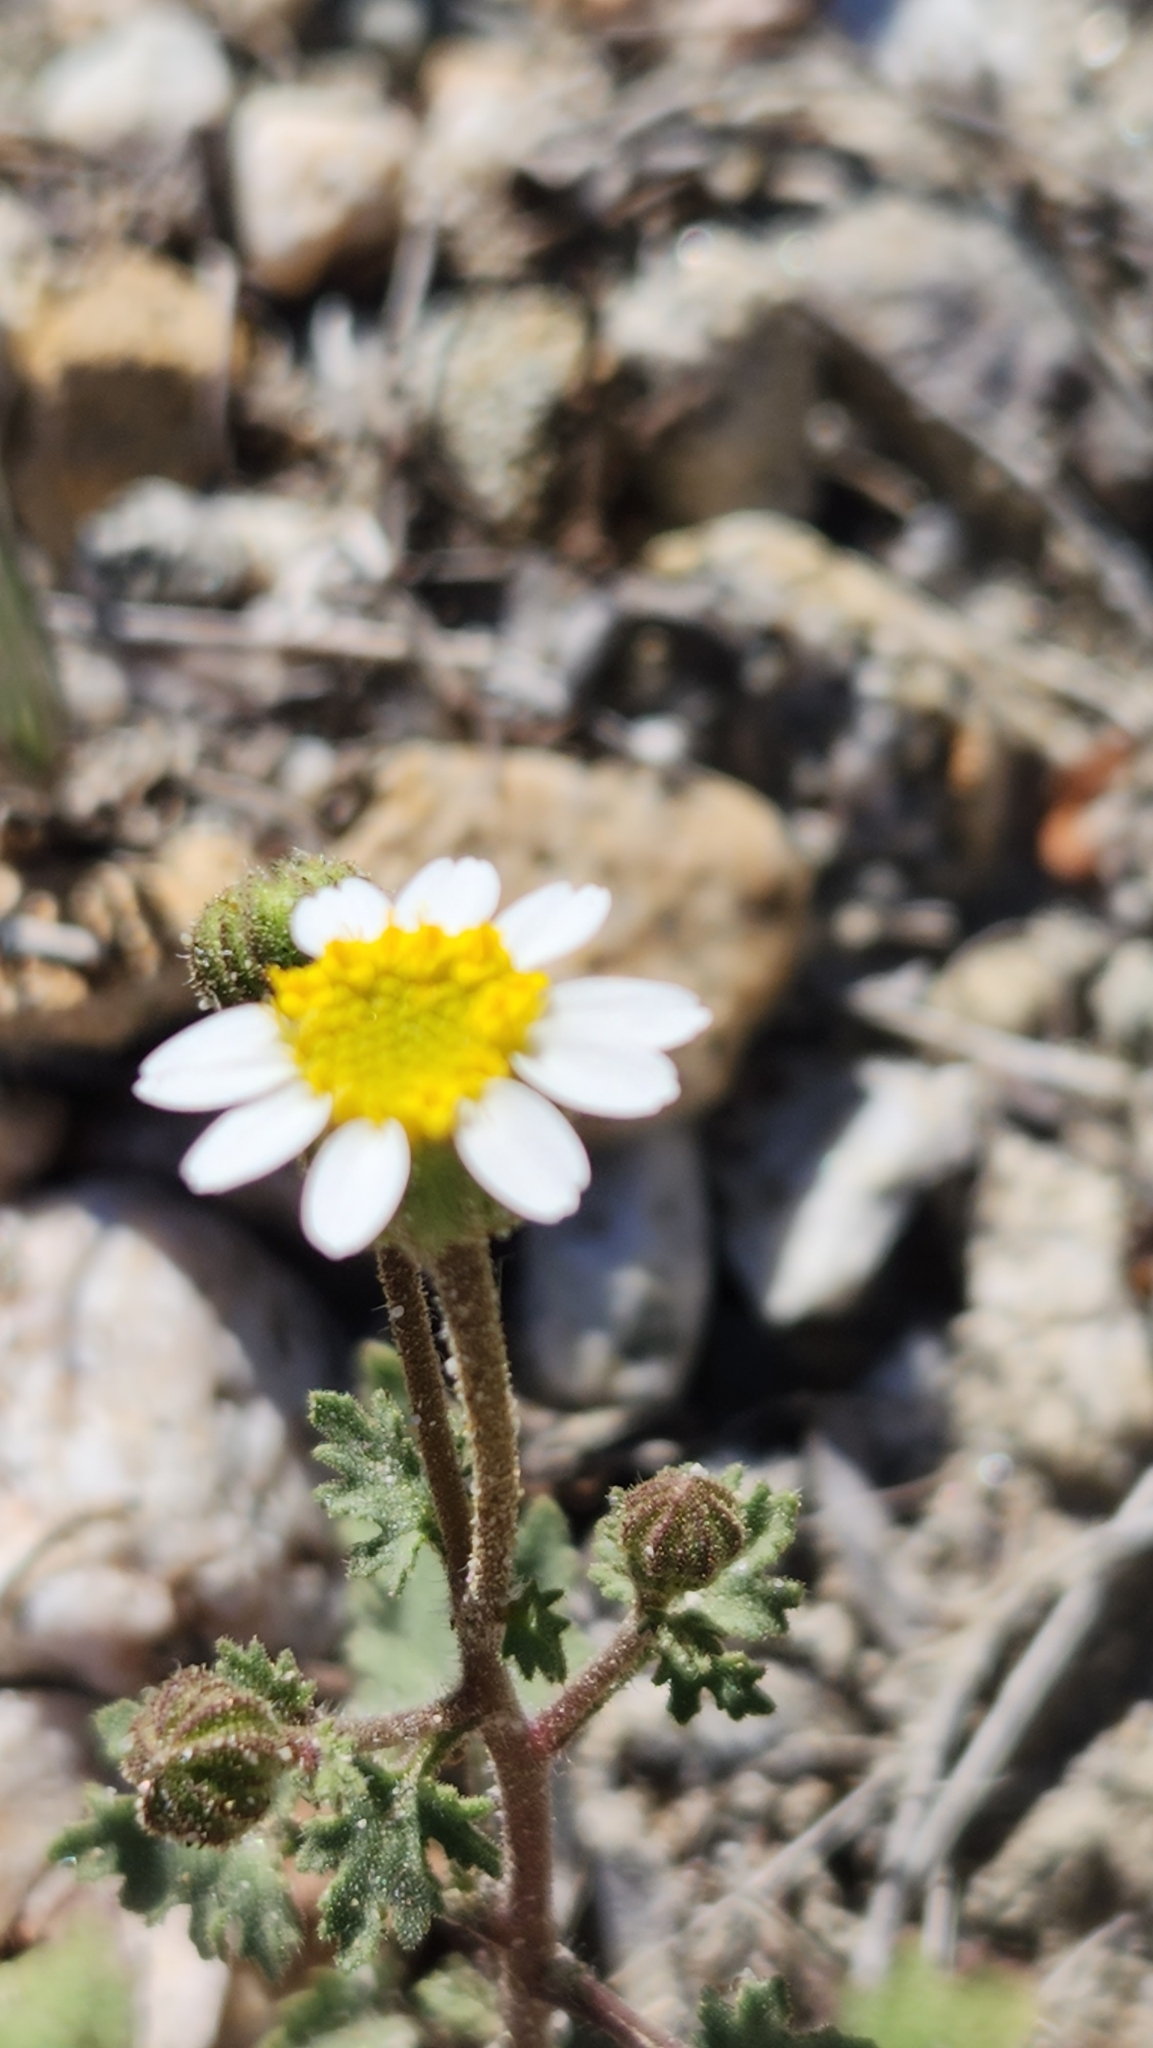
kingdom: Plantae
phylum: Tracheophyta
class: Magnoliopsida
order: Asterales
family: Asteraceae
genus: Laphamia
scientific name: Laphamia emoryi
